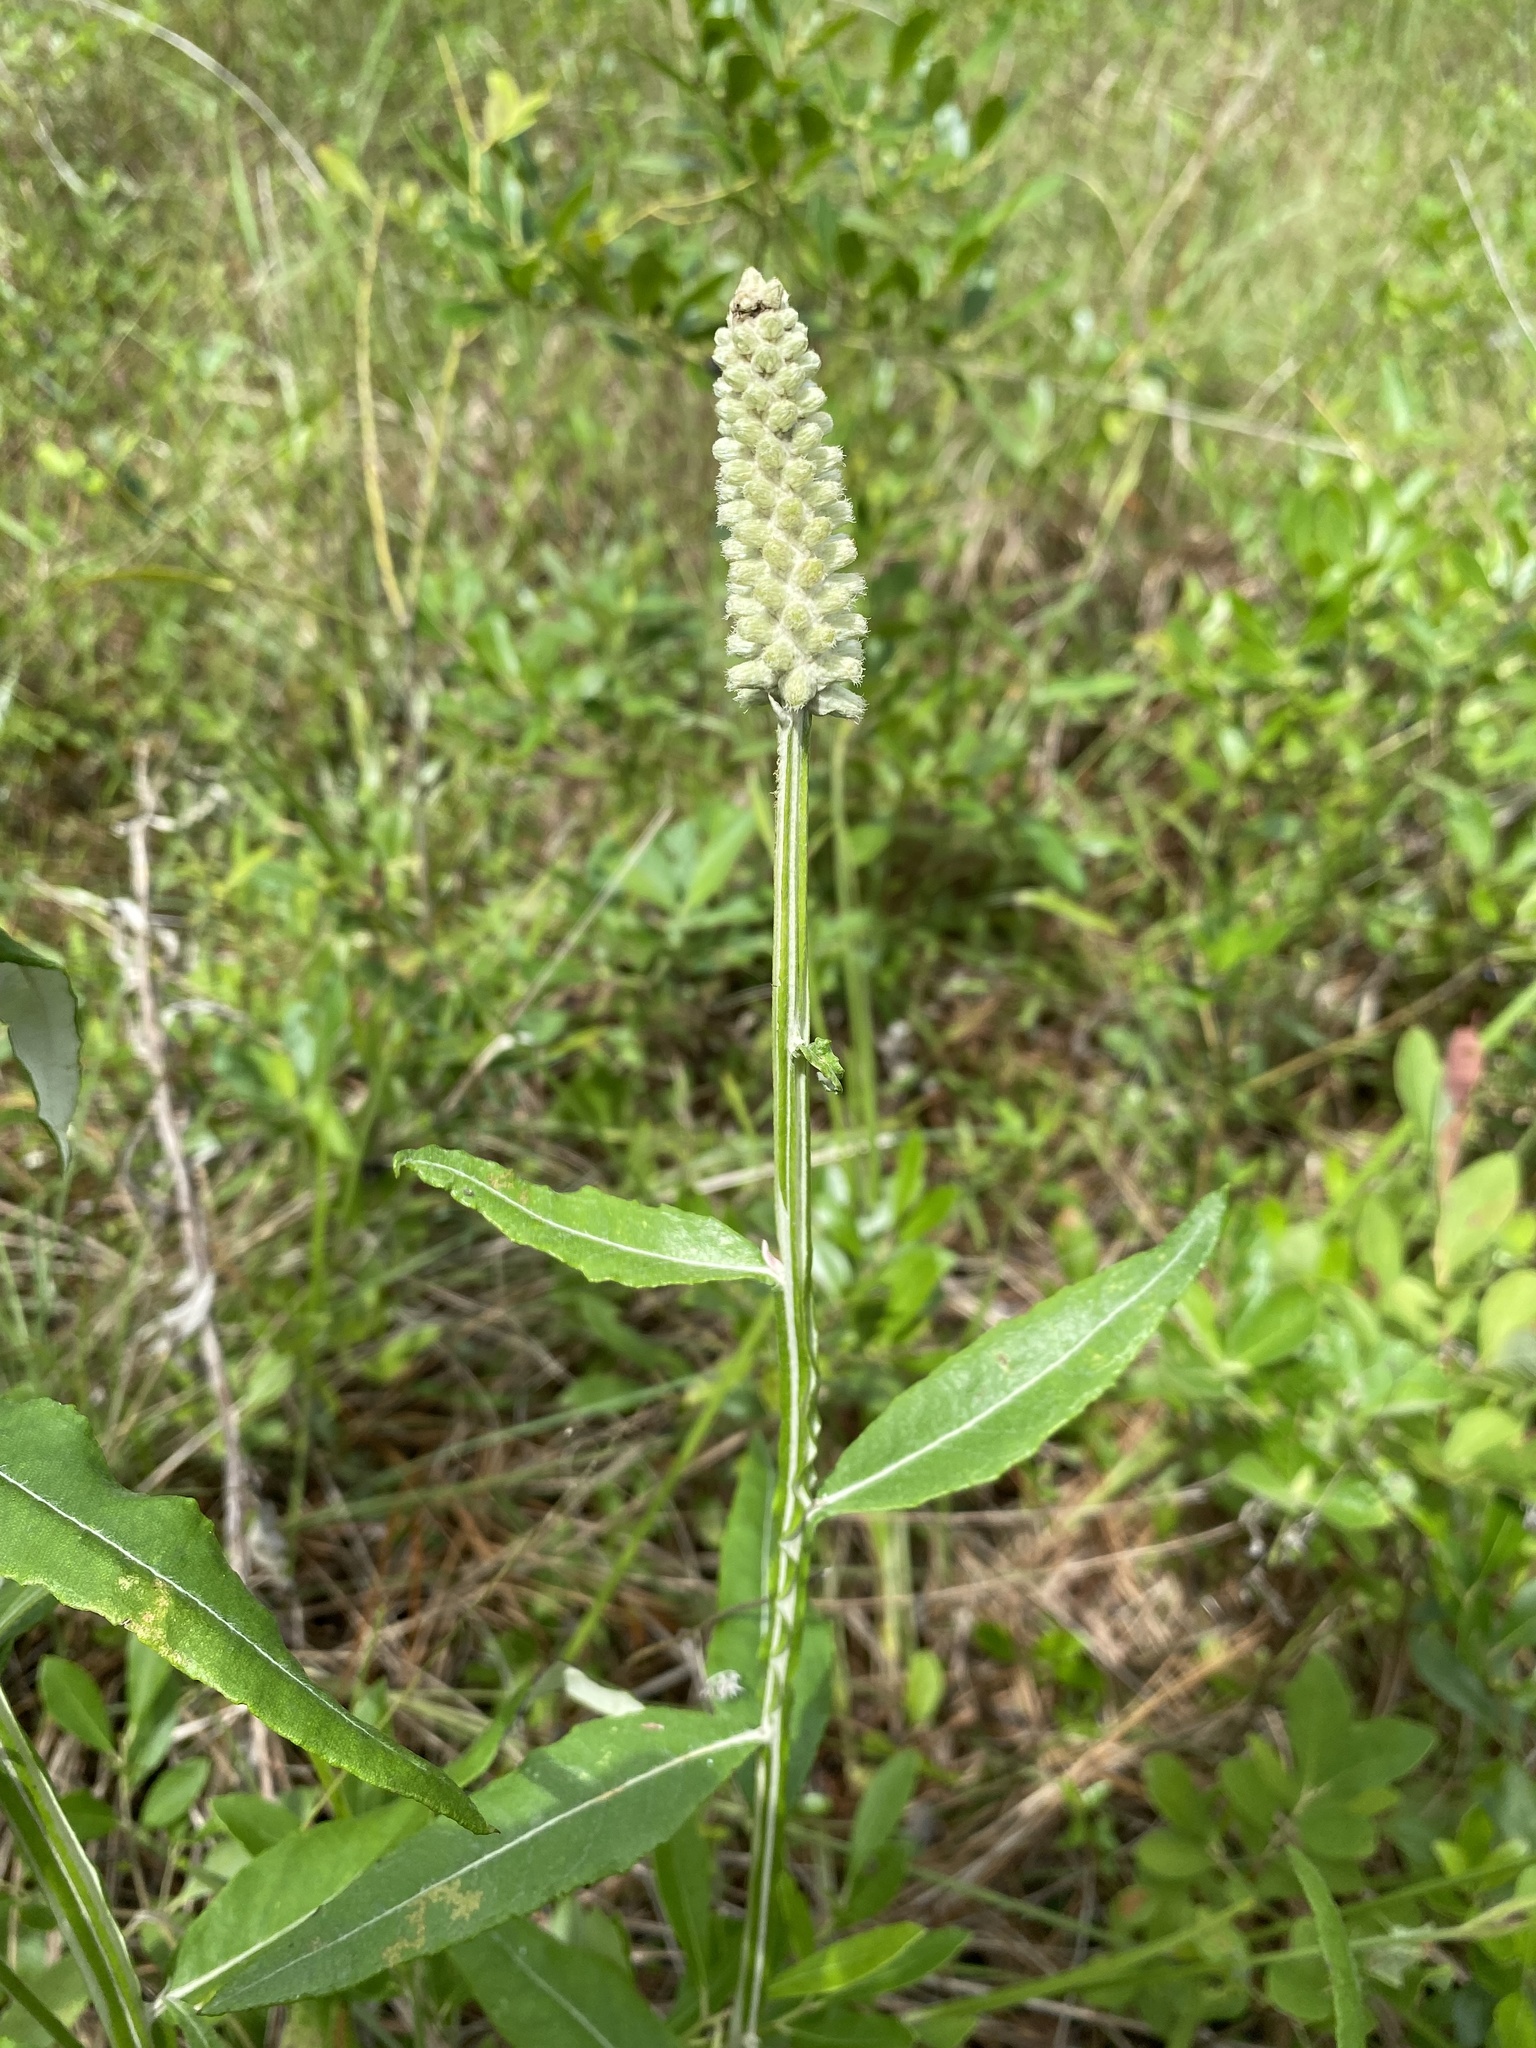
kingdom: Plantae
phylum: Tracheophyta
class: Magnoliopsida
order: Asterales
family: Asteraceae
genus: Pterocaulon
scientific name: Pterocaulon pycnostachyum
